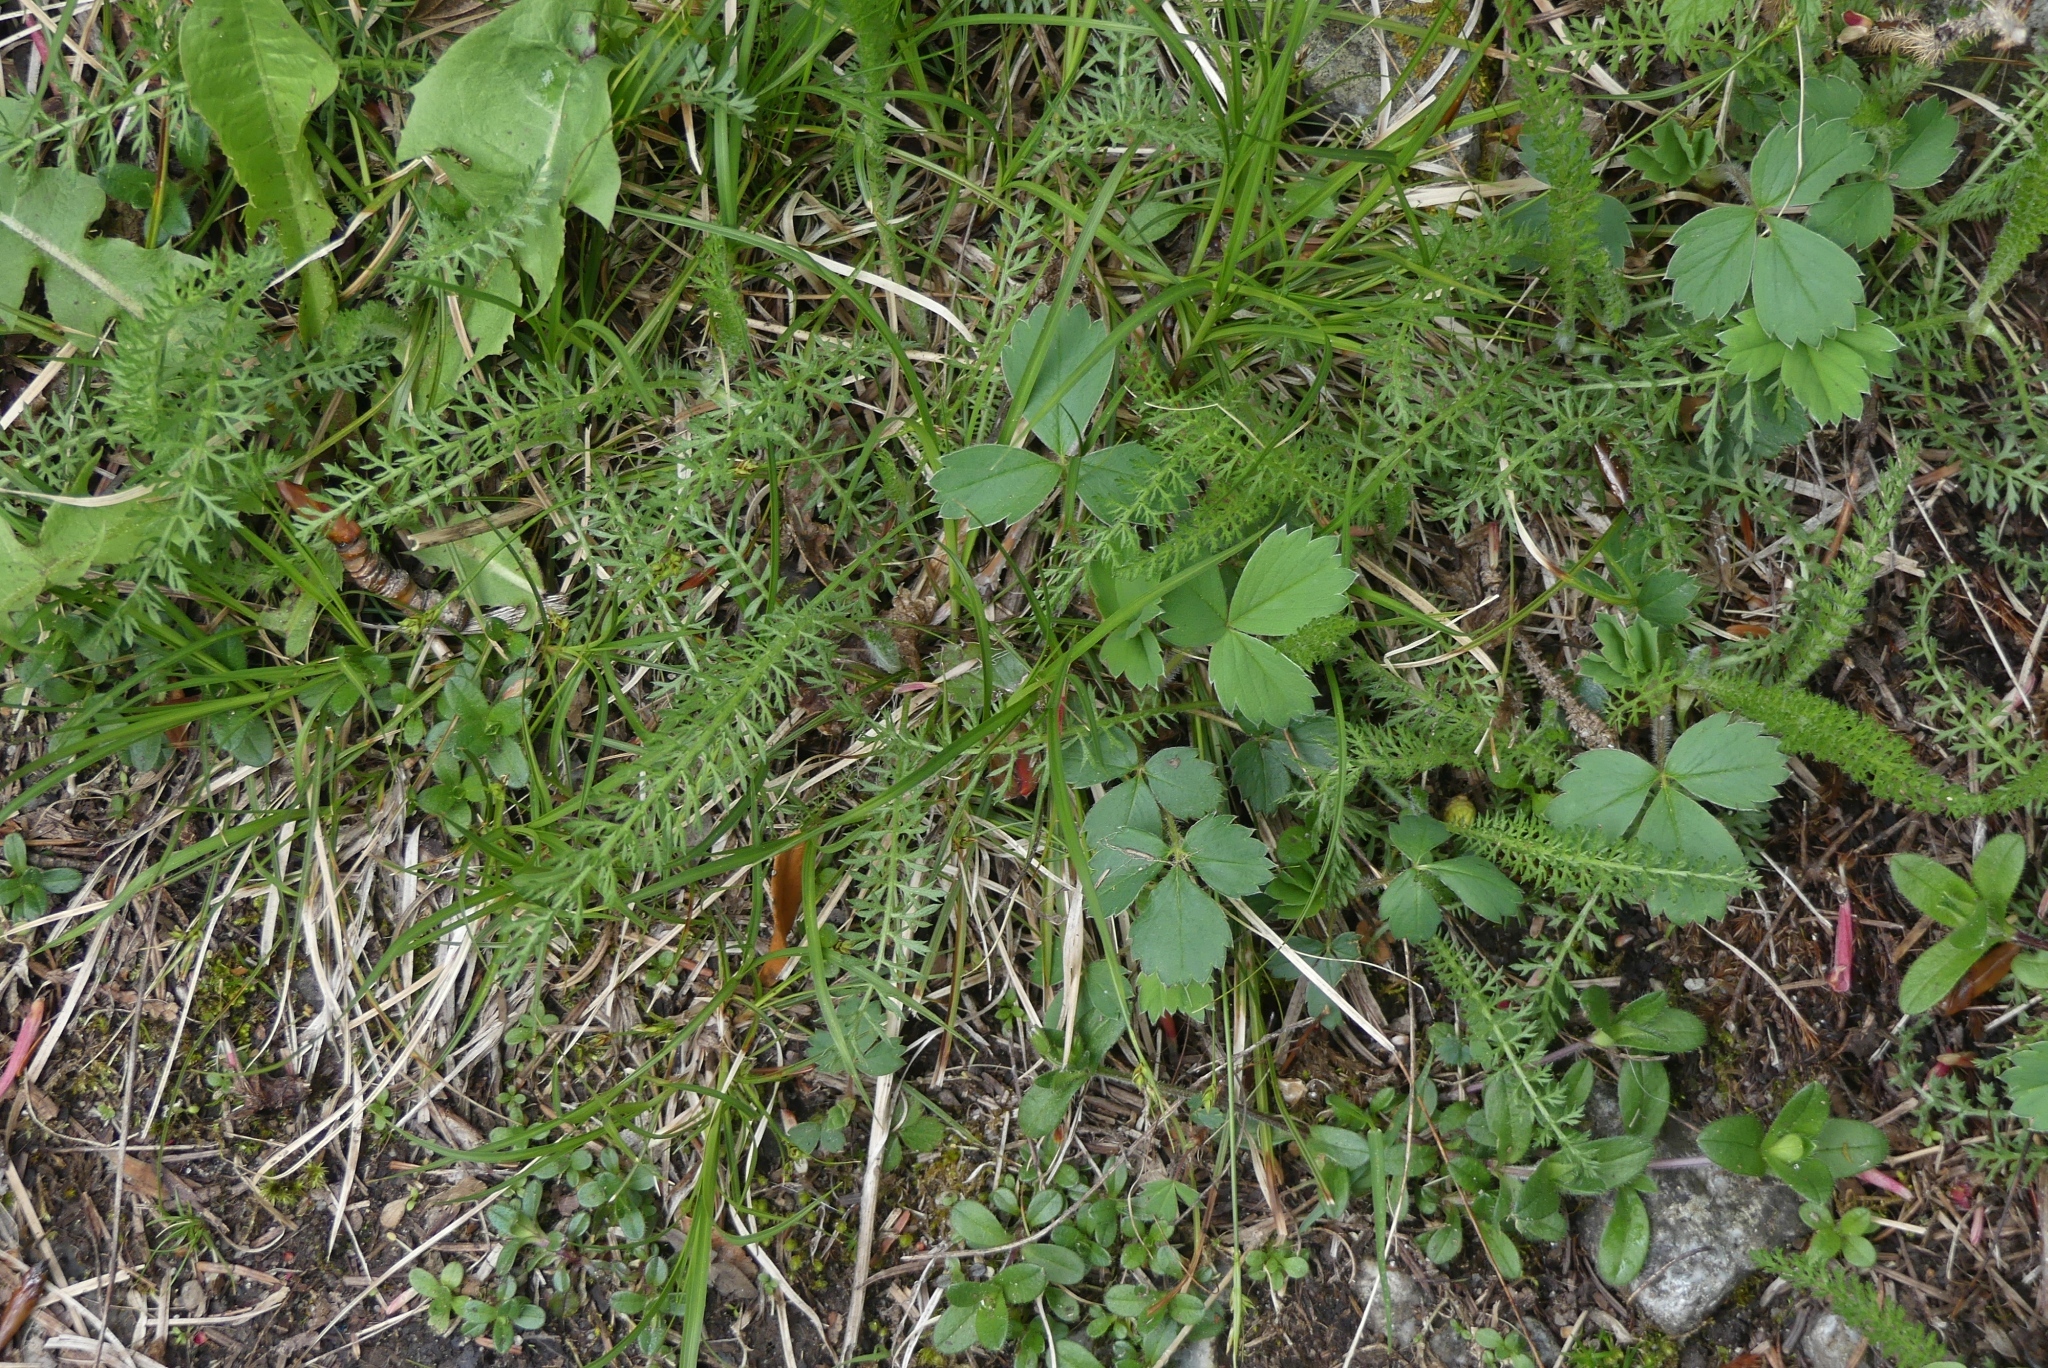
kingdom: Plantae
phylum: Tracheophyta
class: Magnoliopsida
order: Asterales
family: Asteraceae
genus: Achillea
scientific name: Achillea millefolium
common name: Yarrow
